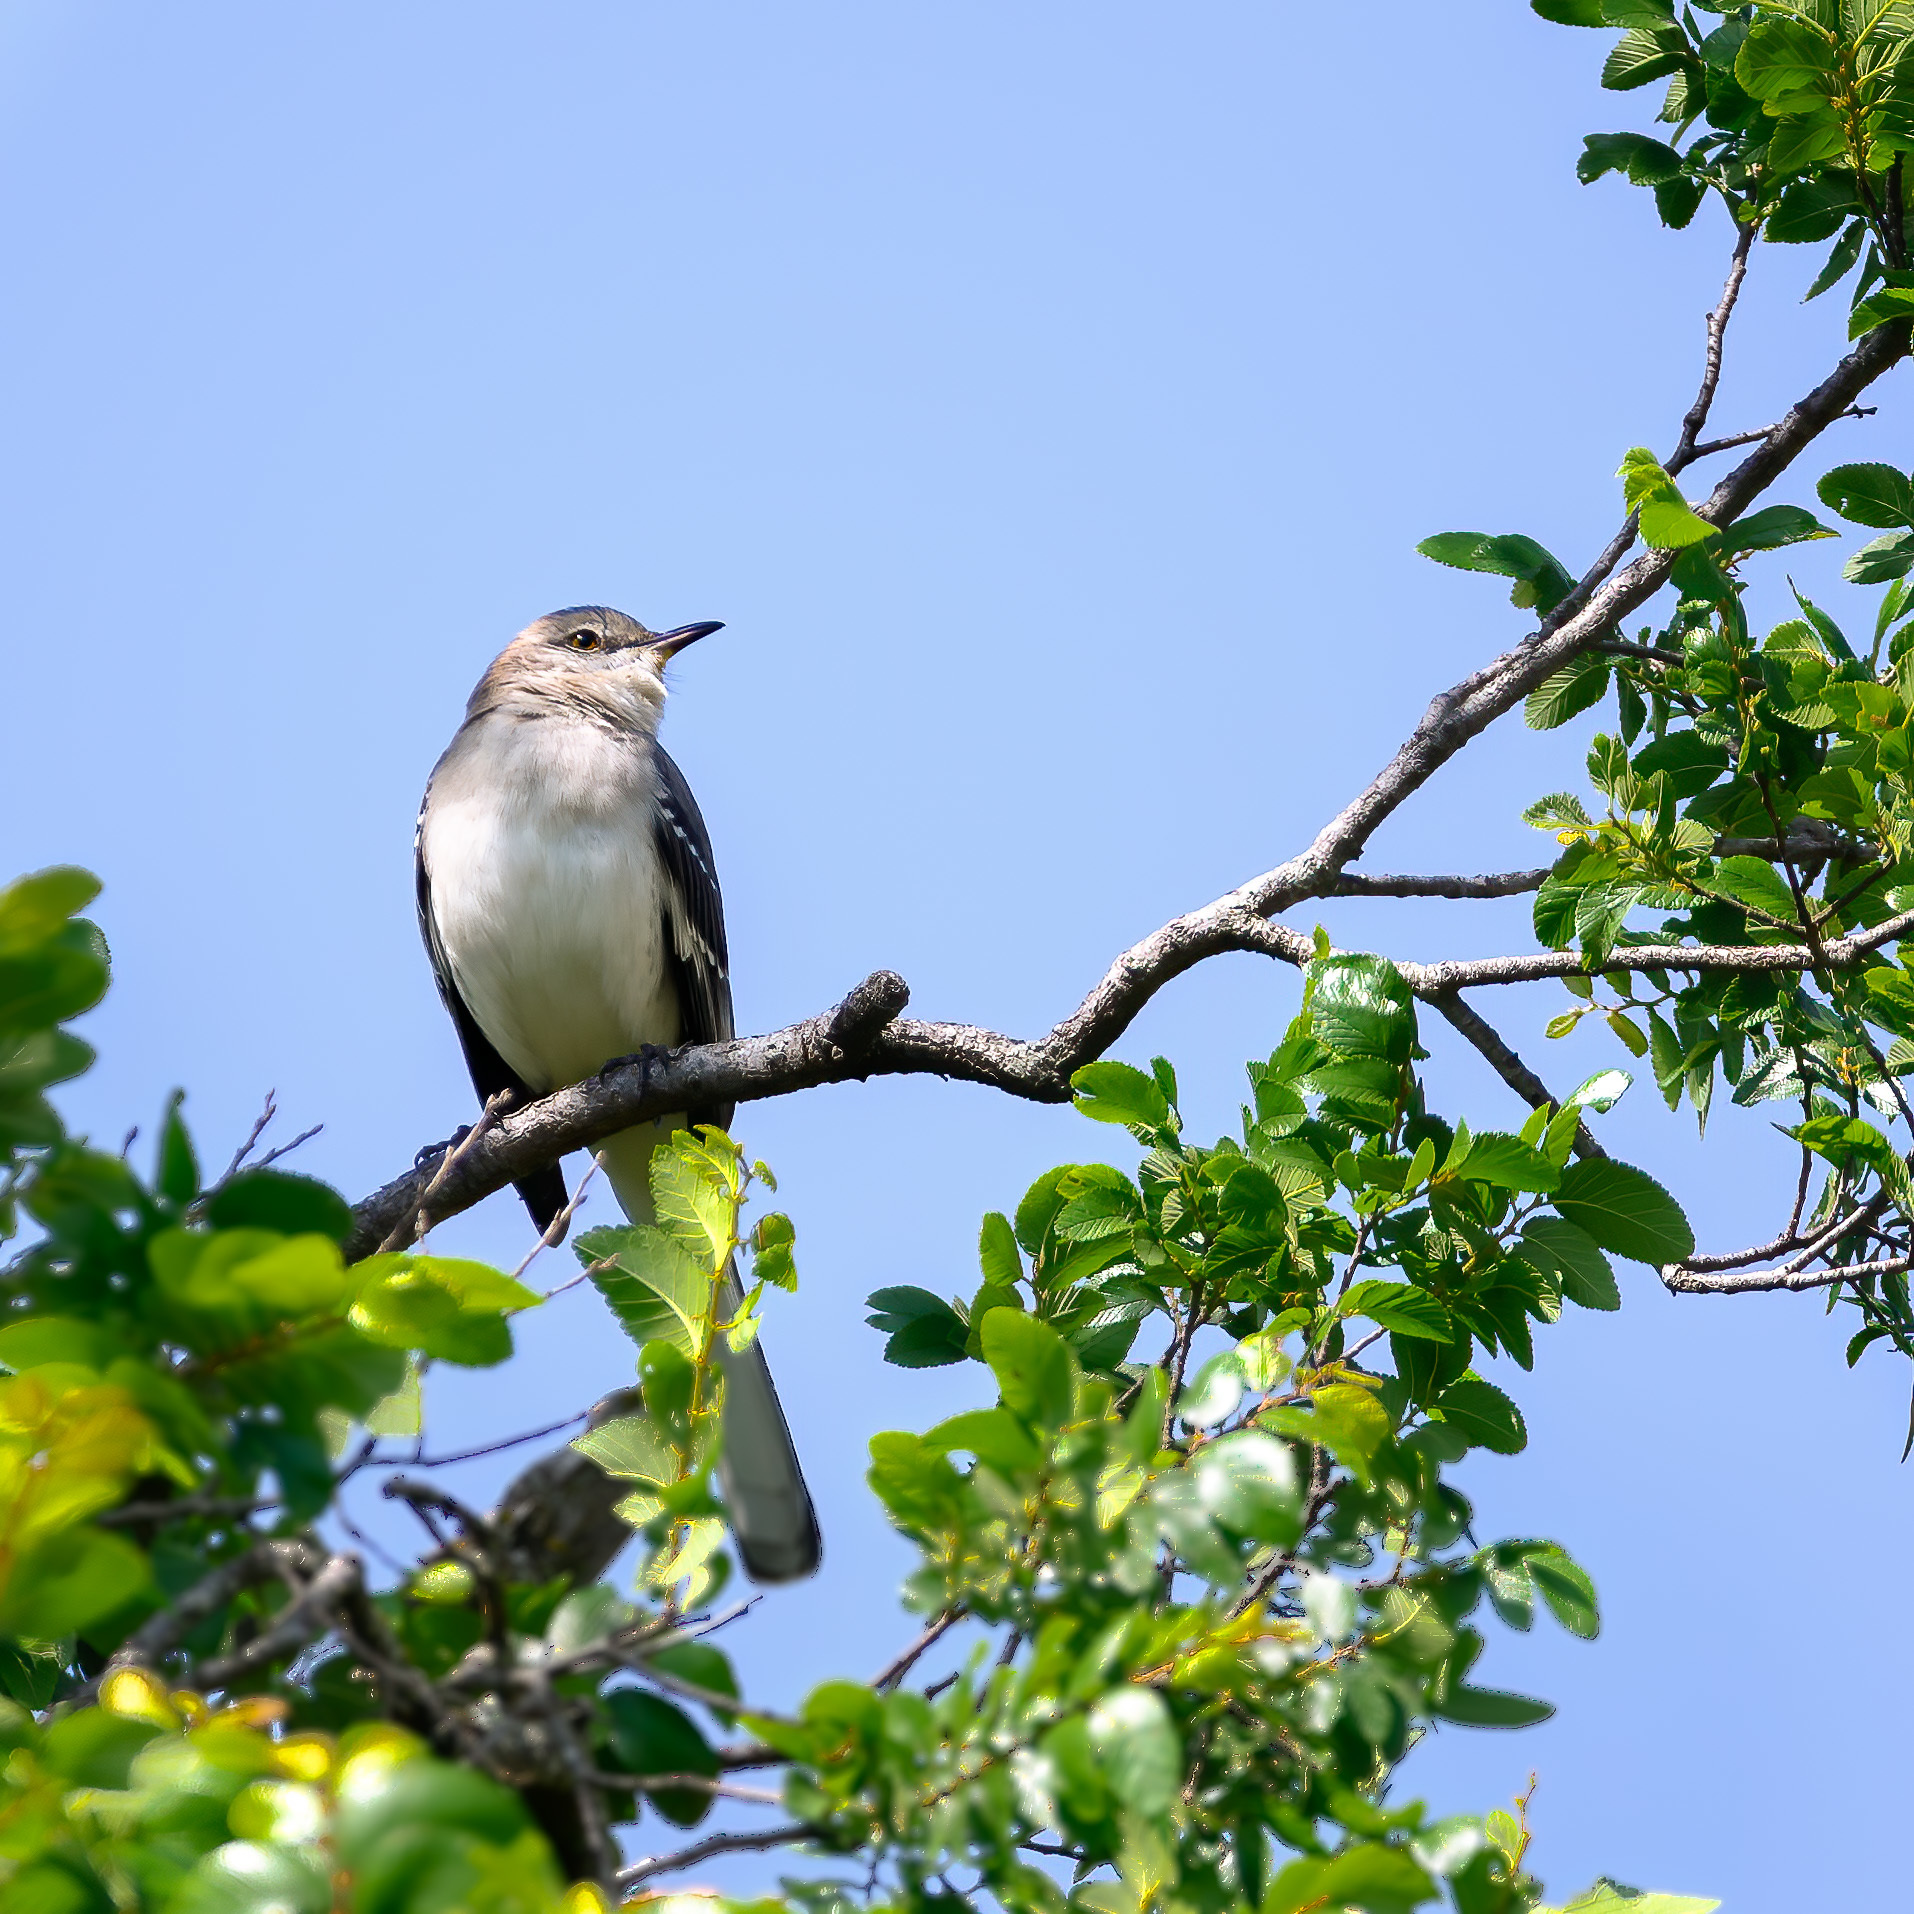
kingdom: Animalia
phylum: Chordata
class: Aves
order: Passeriformes
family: Mimidae
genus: Mimus
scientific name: Mimus polyglottos
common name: Northern mockingbird
